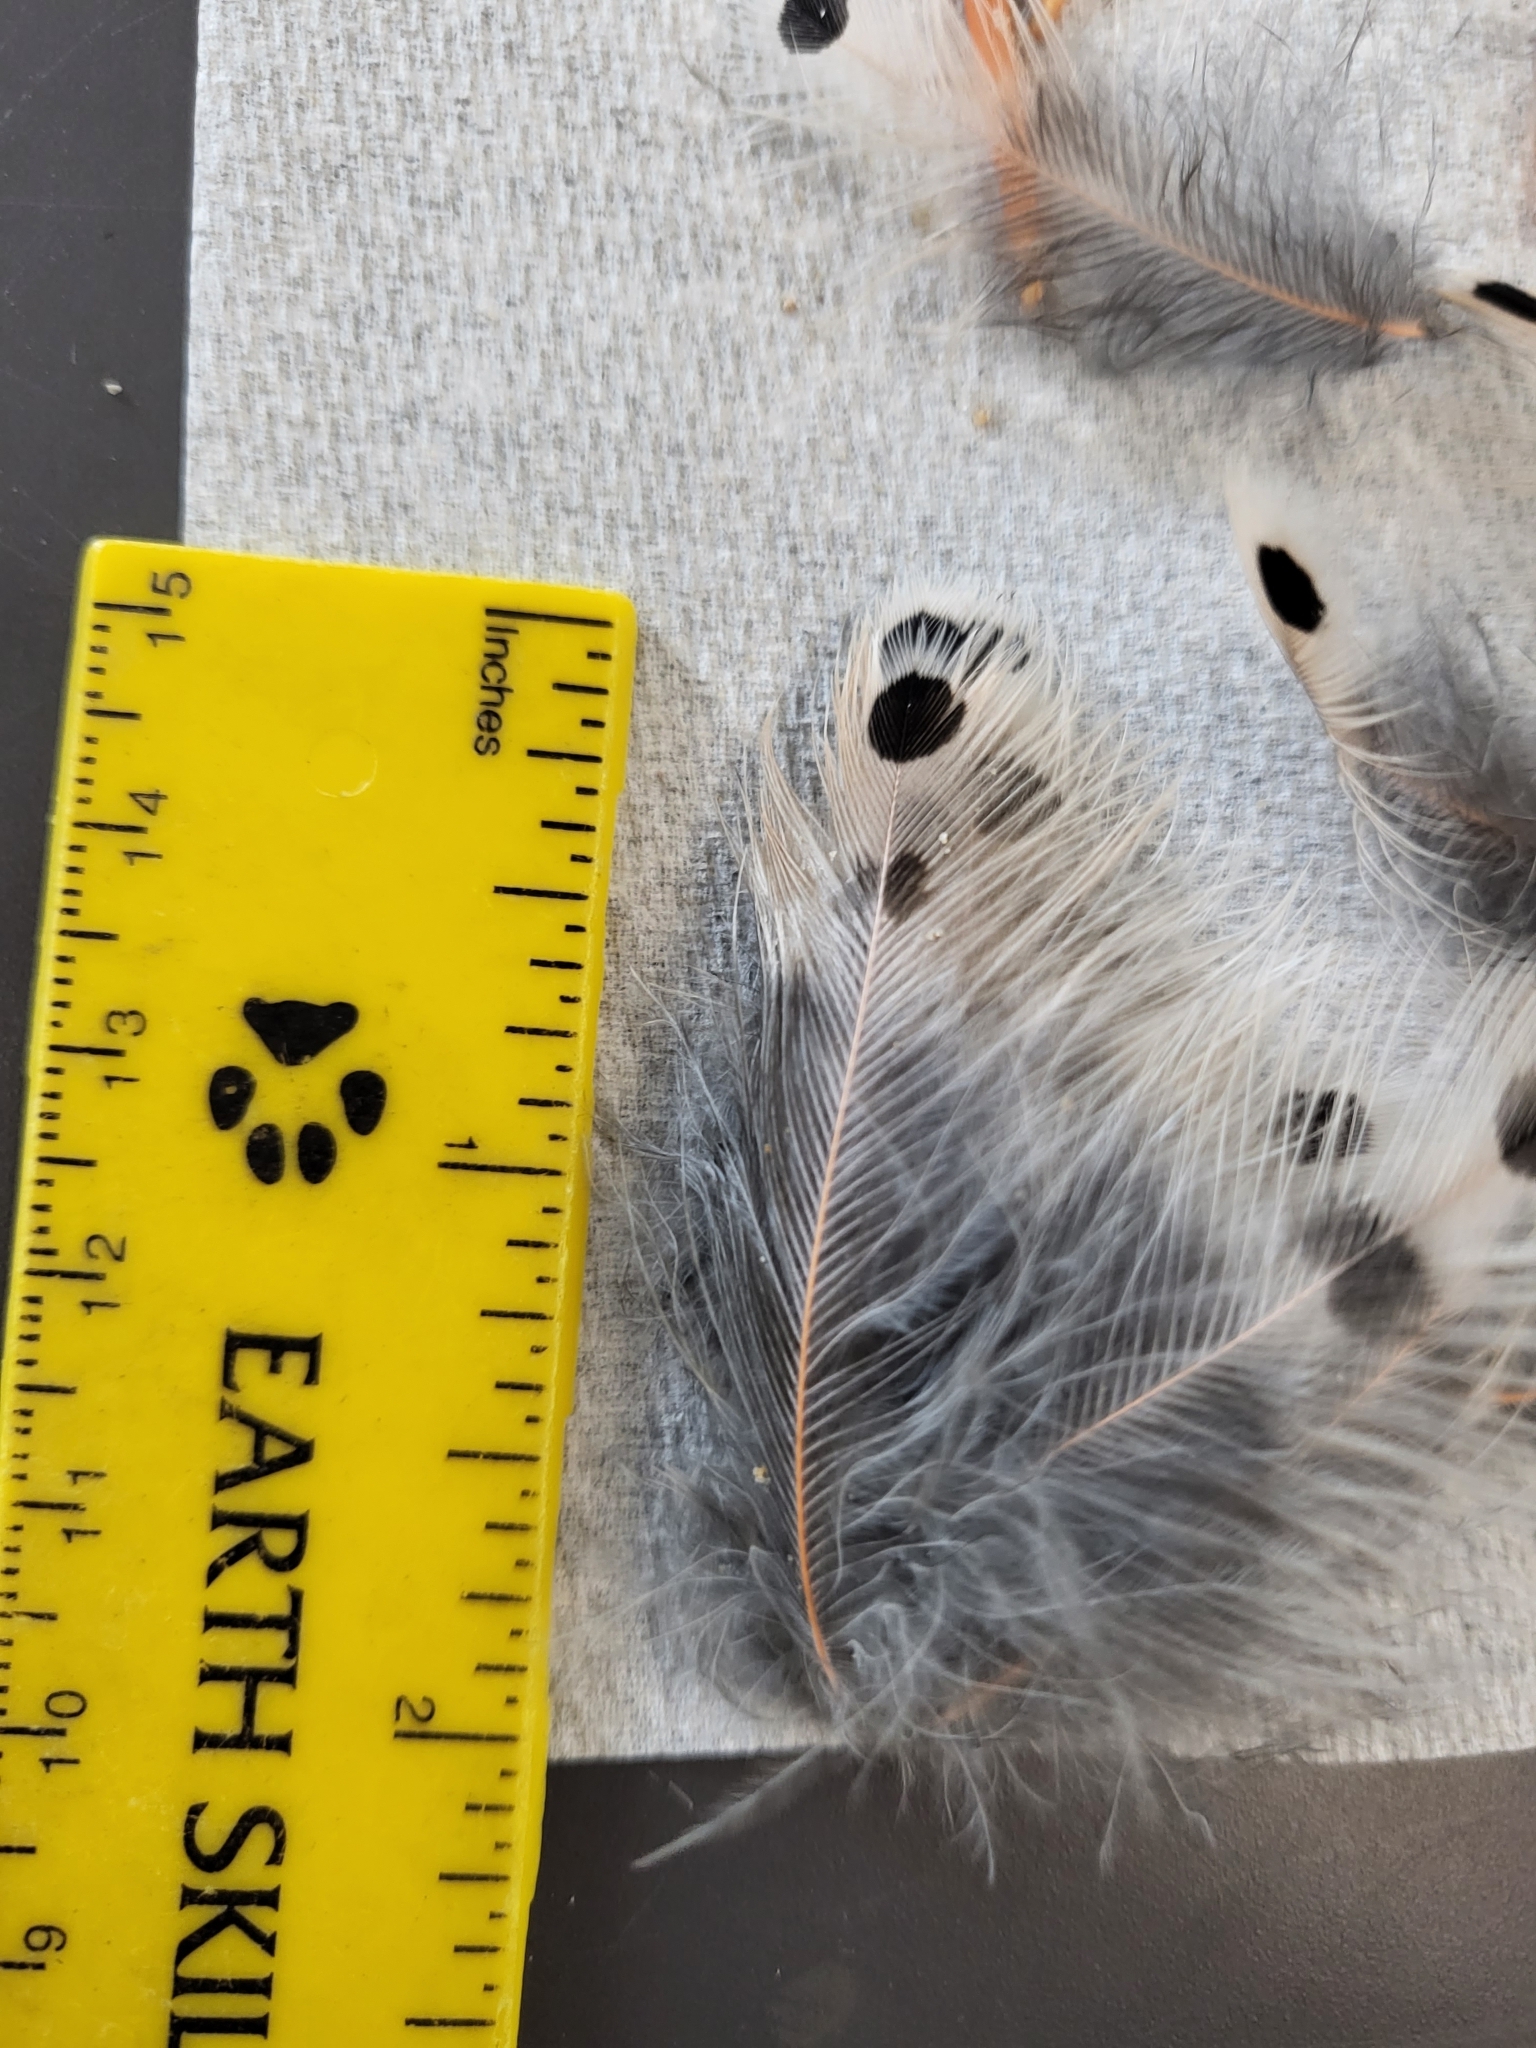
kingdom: Animalia
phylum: Chordata
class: Aves
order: Piciformes
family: Picidae
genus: Colaptes
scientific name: Colaptes auratus
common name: Northern flicker
